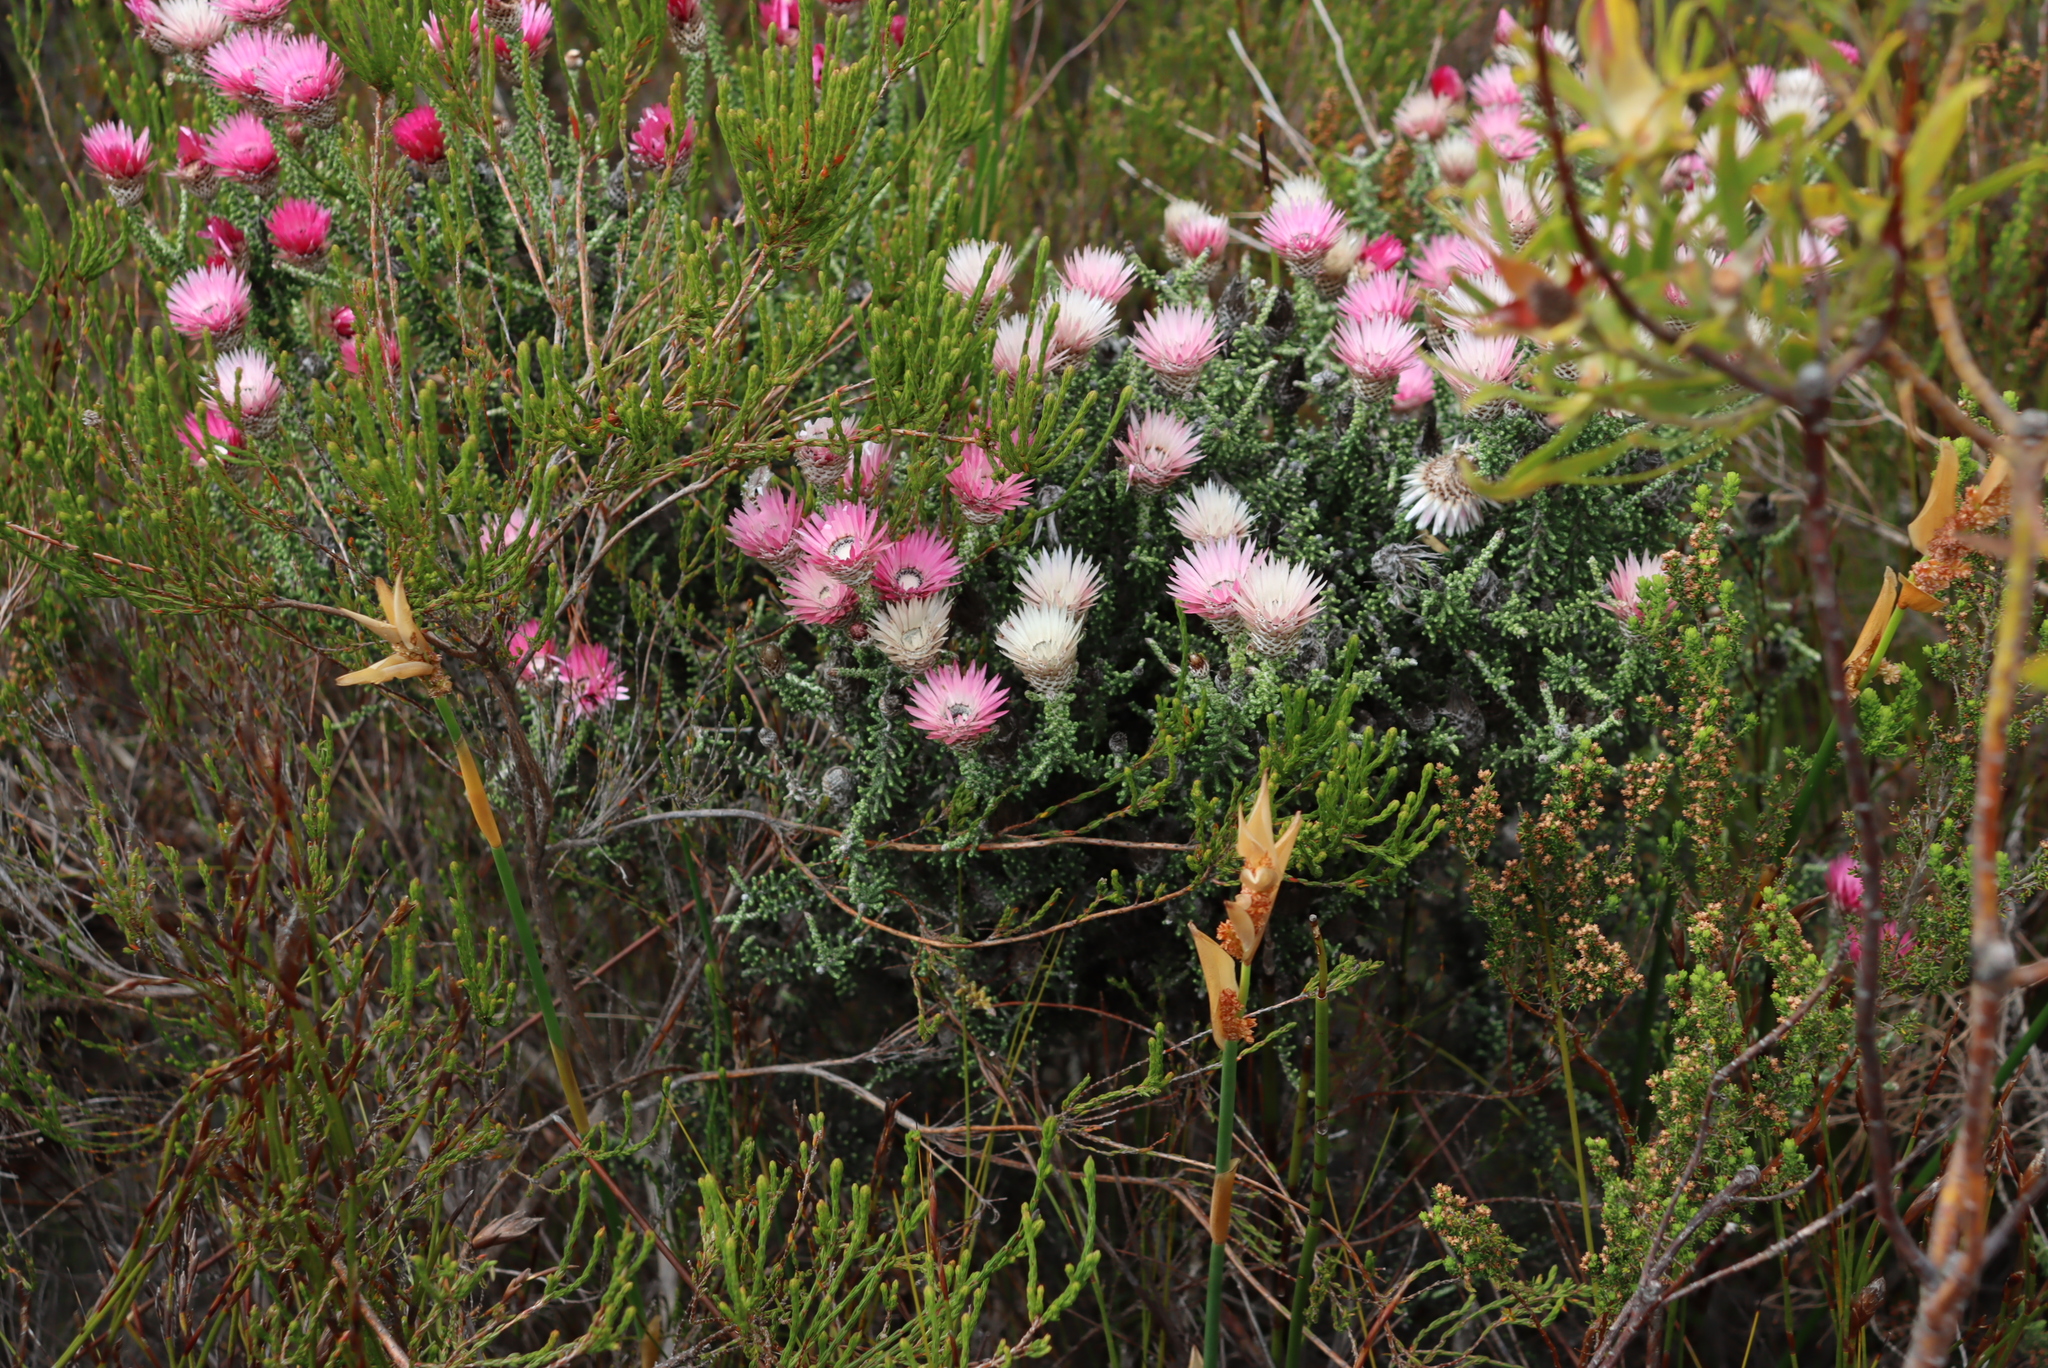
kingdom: Plantae
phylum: Tracheophyta
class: Magnoliopsida
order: Asterales
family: Asteraceae
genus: Phaenocoma
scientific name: Phaenocoma prolifera
